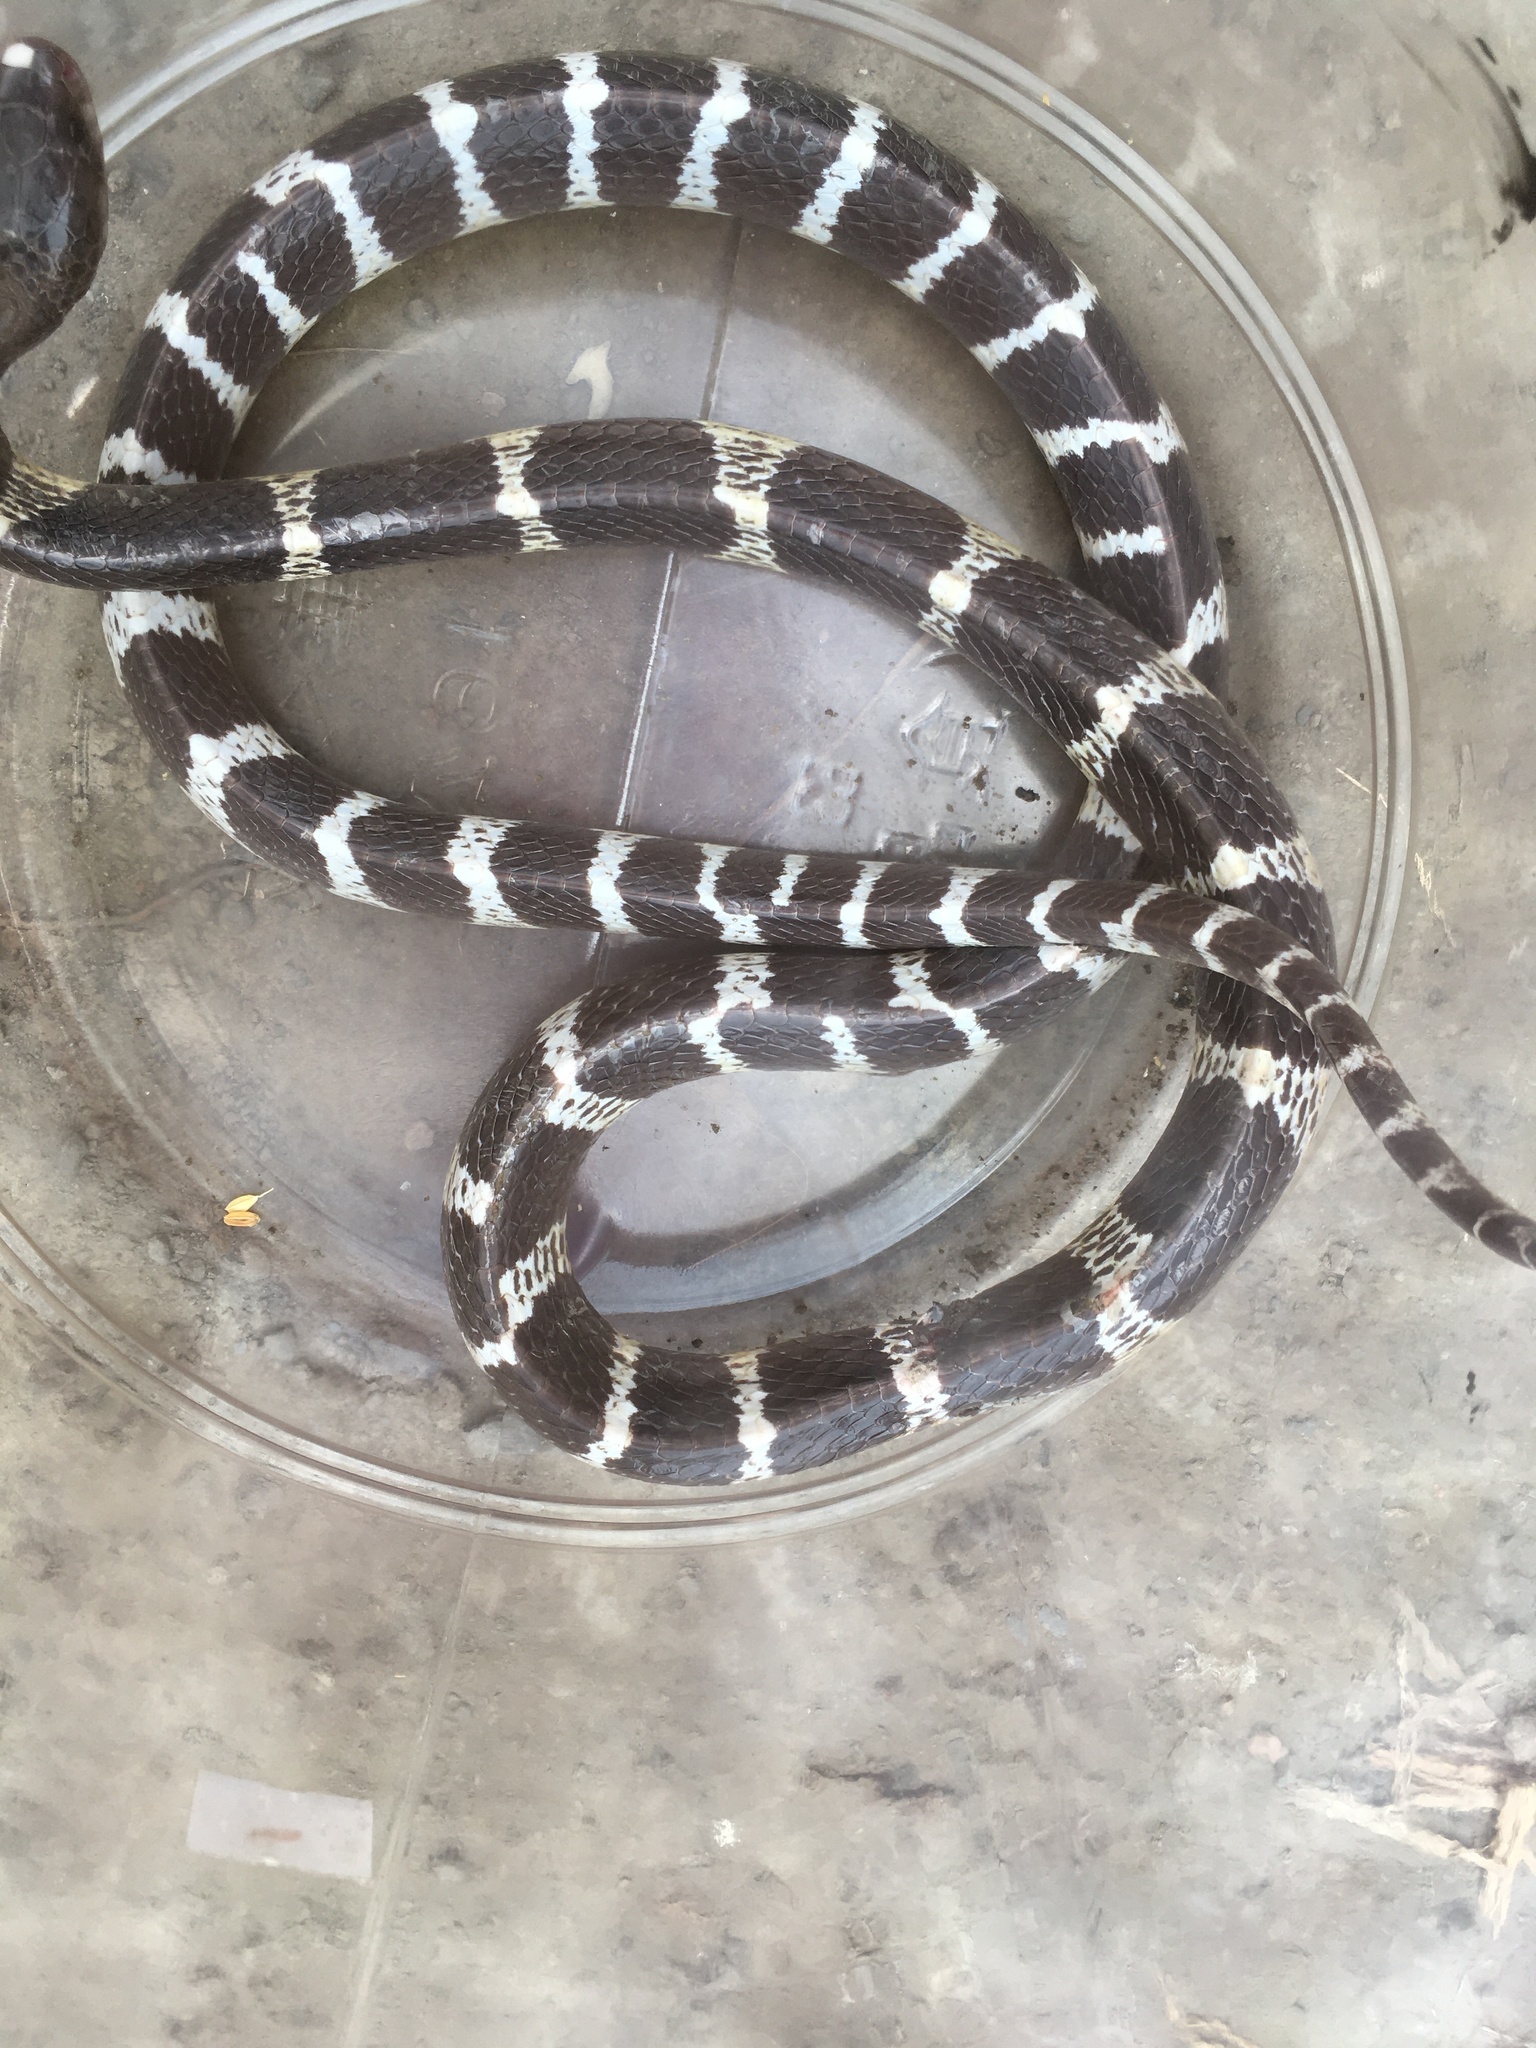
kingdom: Animalia
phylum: Chordata
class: Squamata
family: Elapidae
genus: Bungarus
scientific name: Bungarus multicinctus
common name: Many-banded krait
